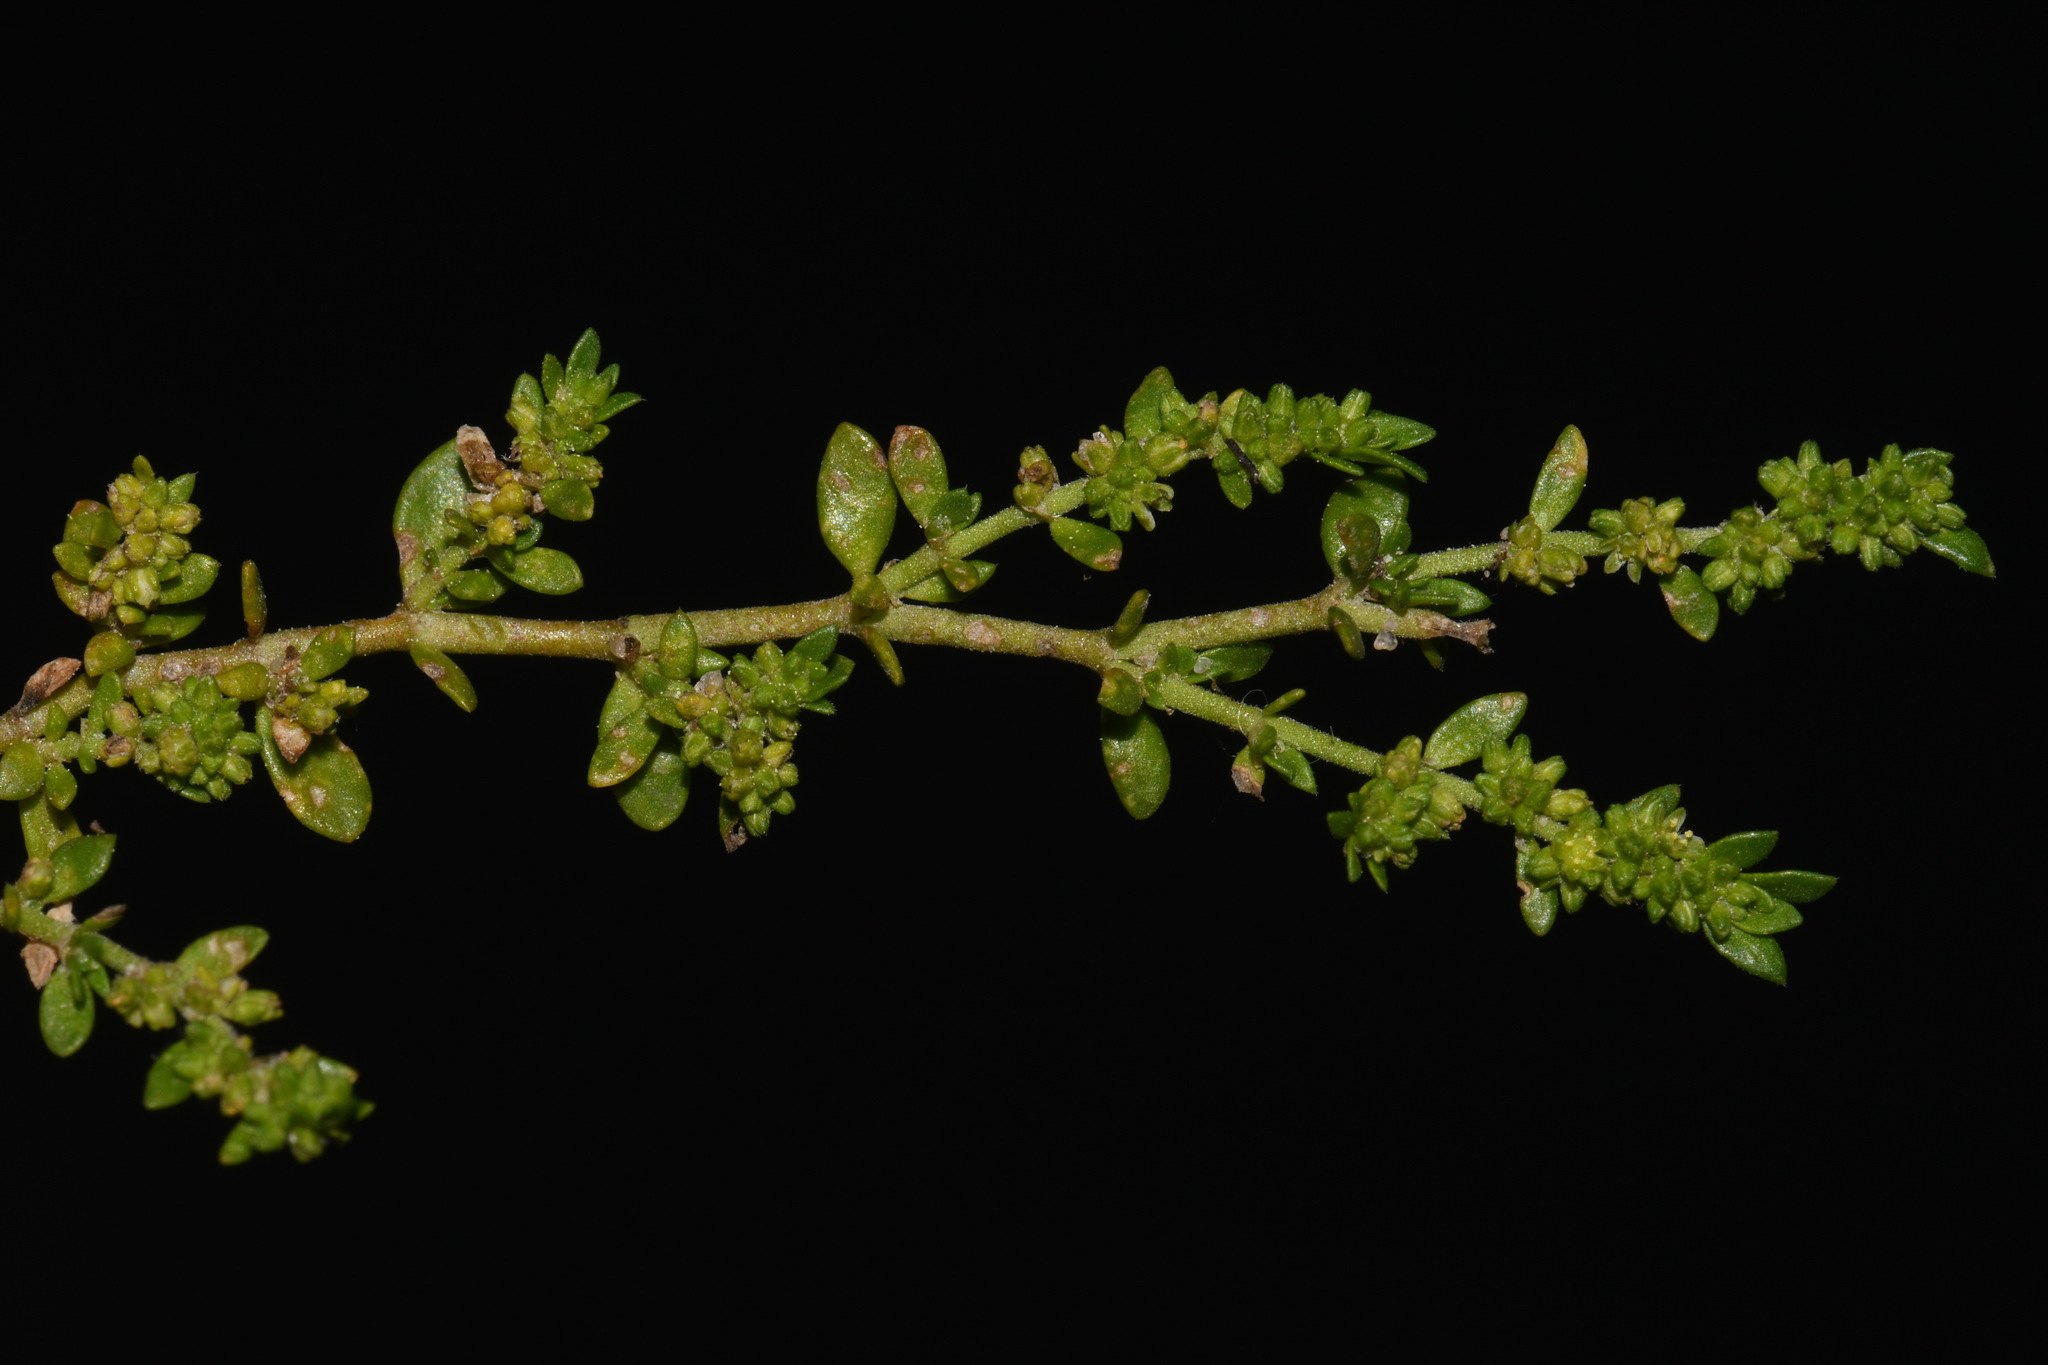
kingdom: Plantae
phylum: Tracheophyta
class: Magnoliopsida
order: Caryophyllales
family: Caryophyllaceae
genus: Herniaria
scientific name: Herniaria glabra
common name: Smooth rupturewort
